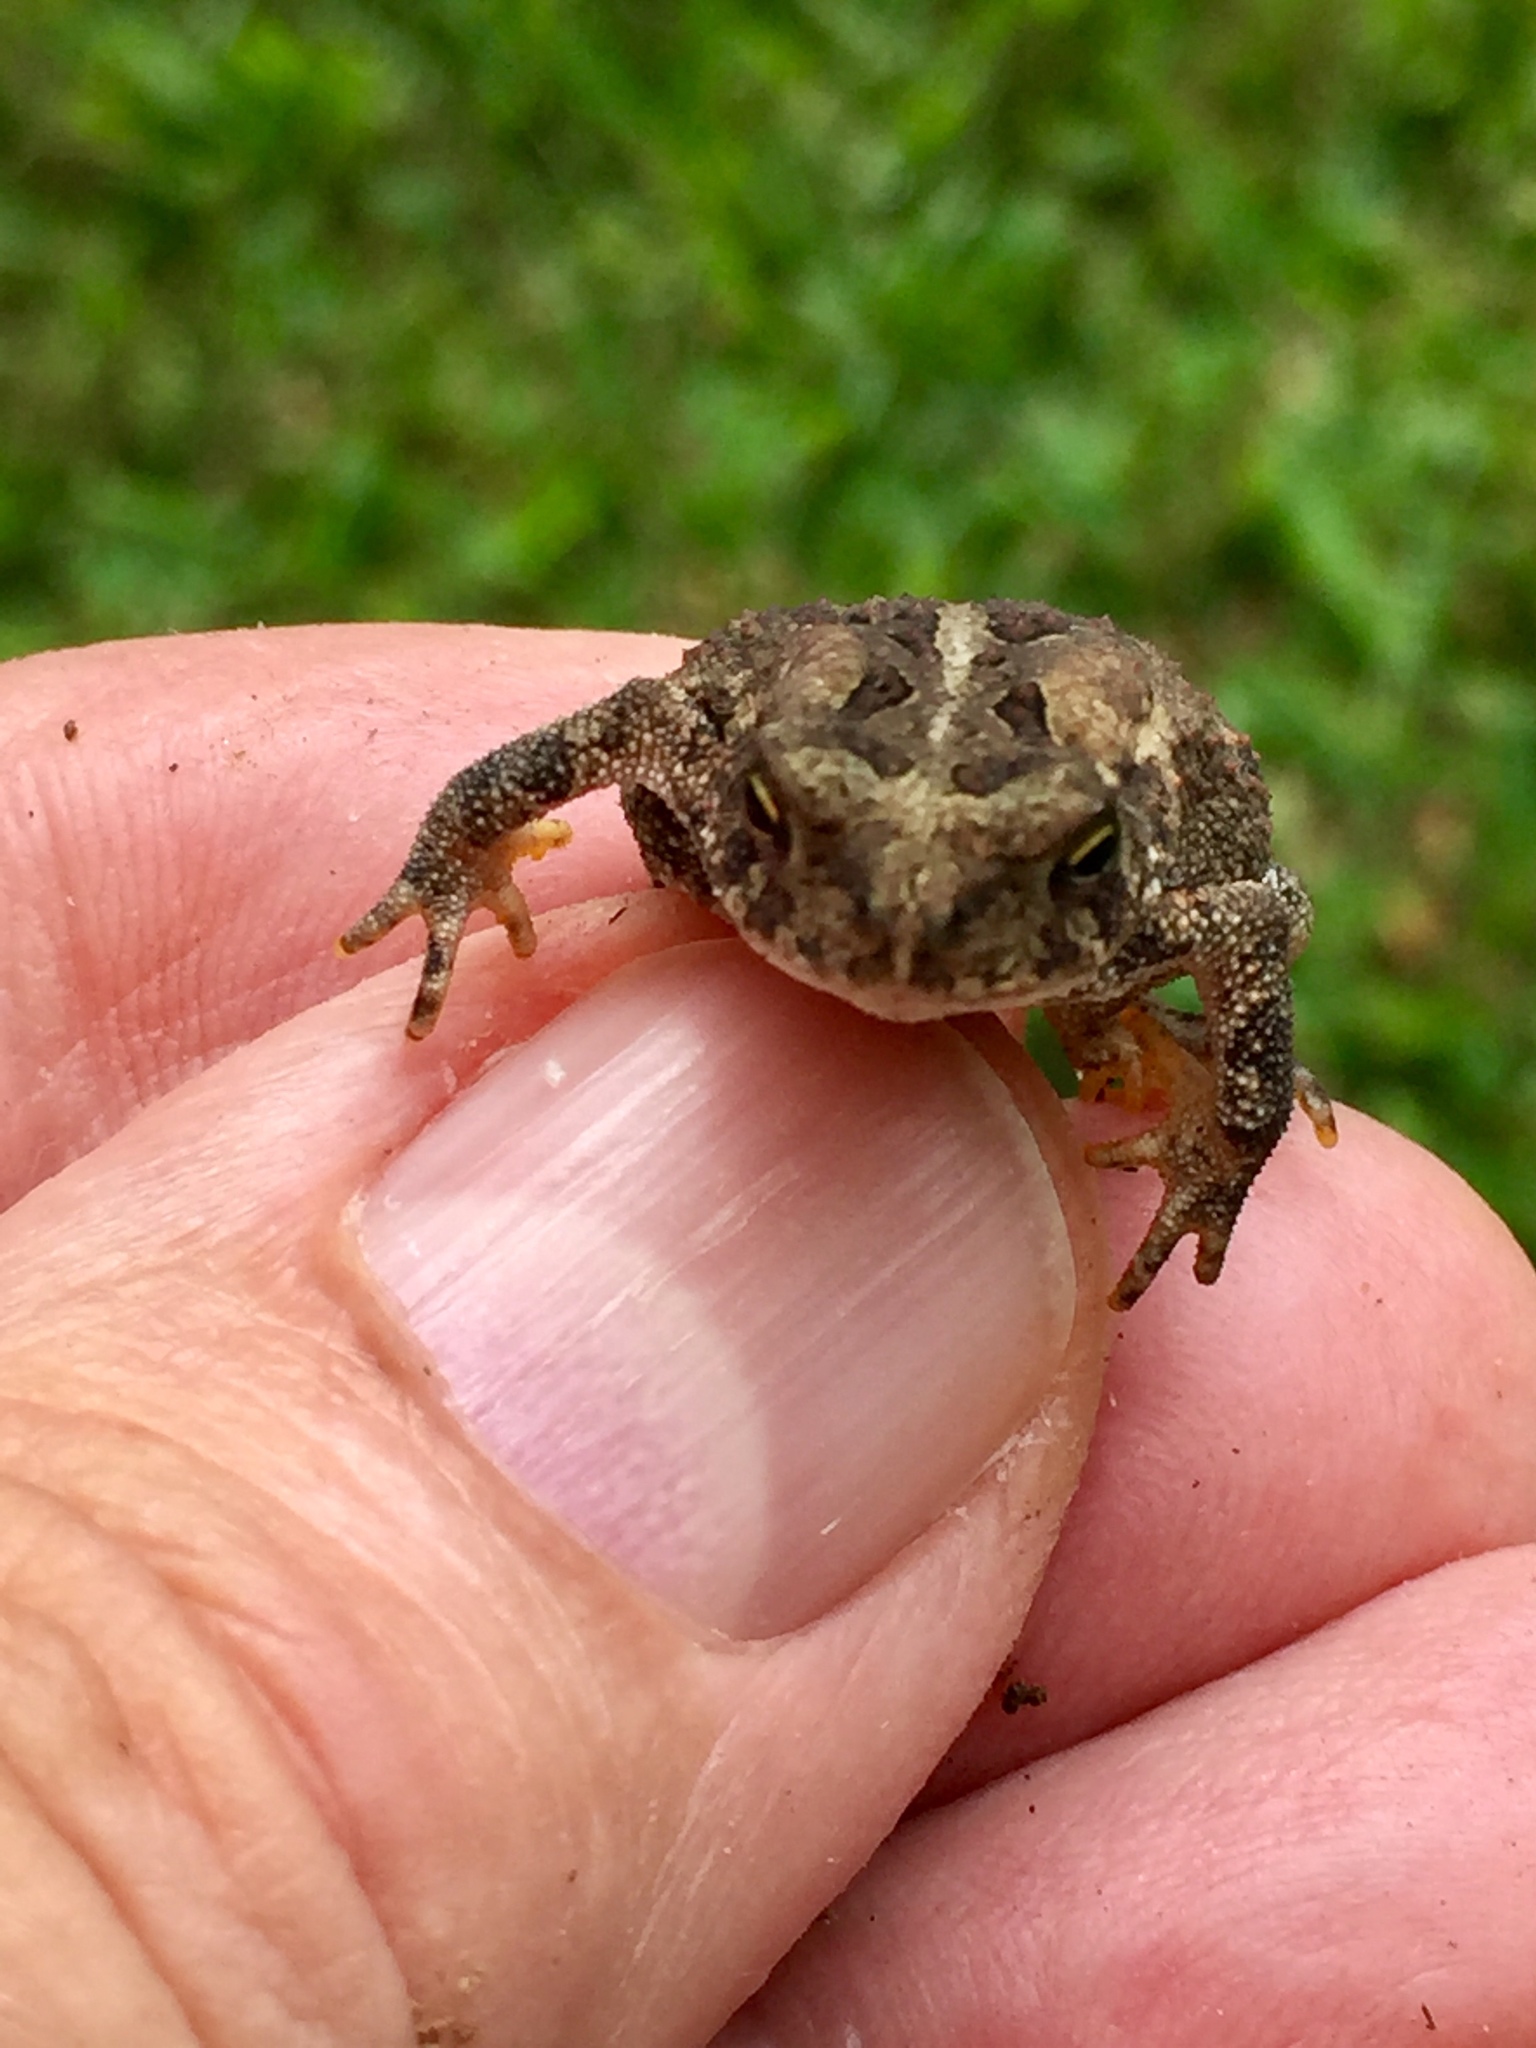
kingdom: Animalia
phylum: Chordata
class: Amphibia
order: Anura
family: Bufonidae
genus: Anaxyrus
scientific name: Anaxyrus americanus
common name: American toad
